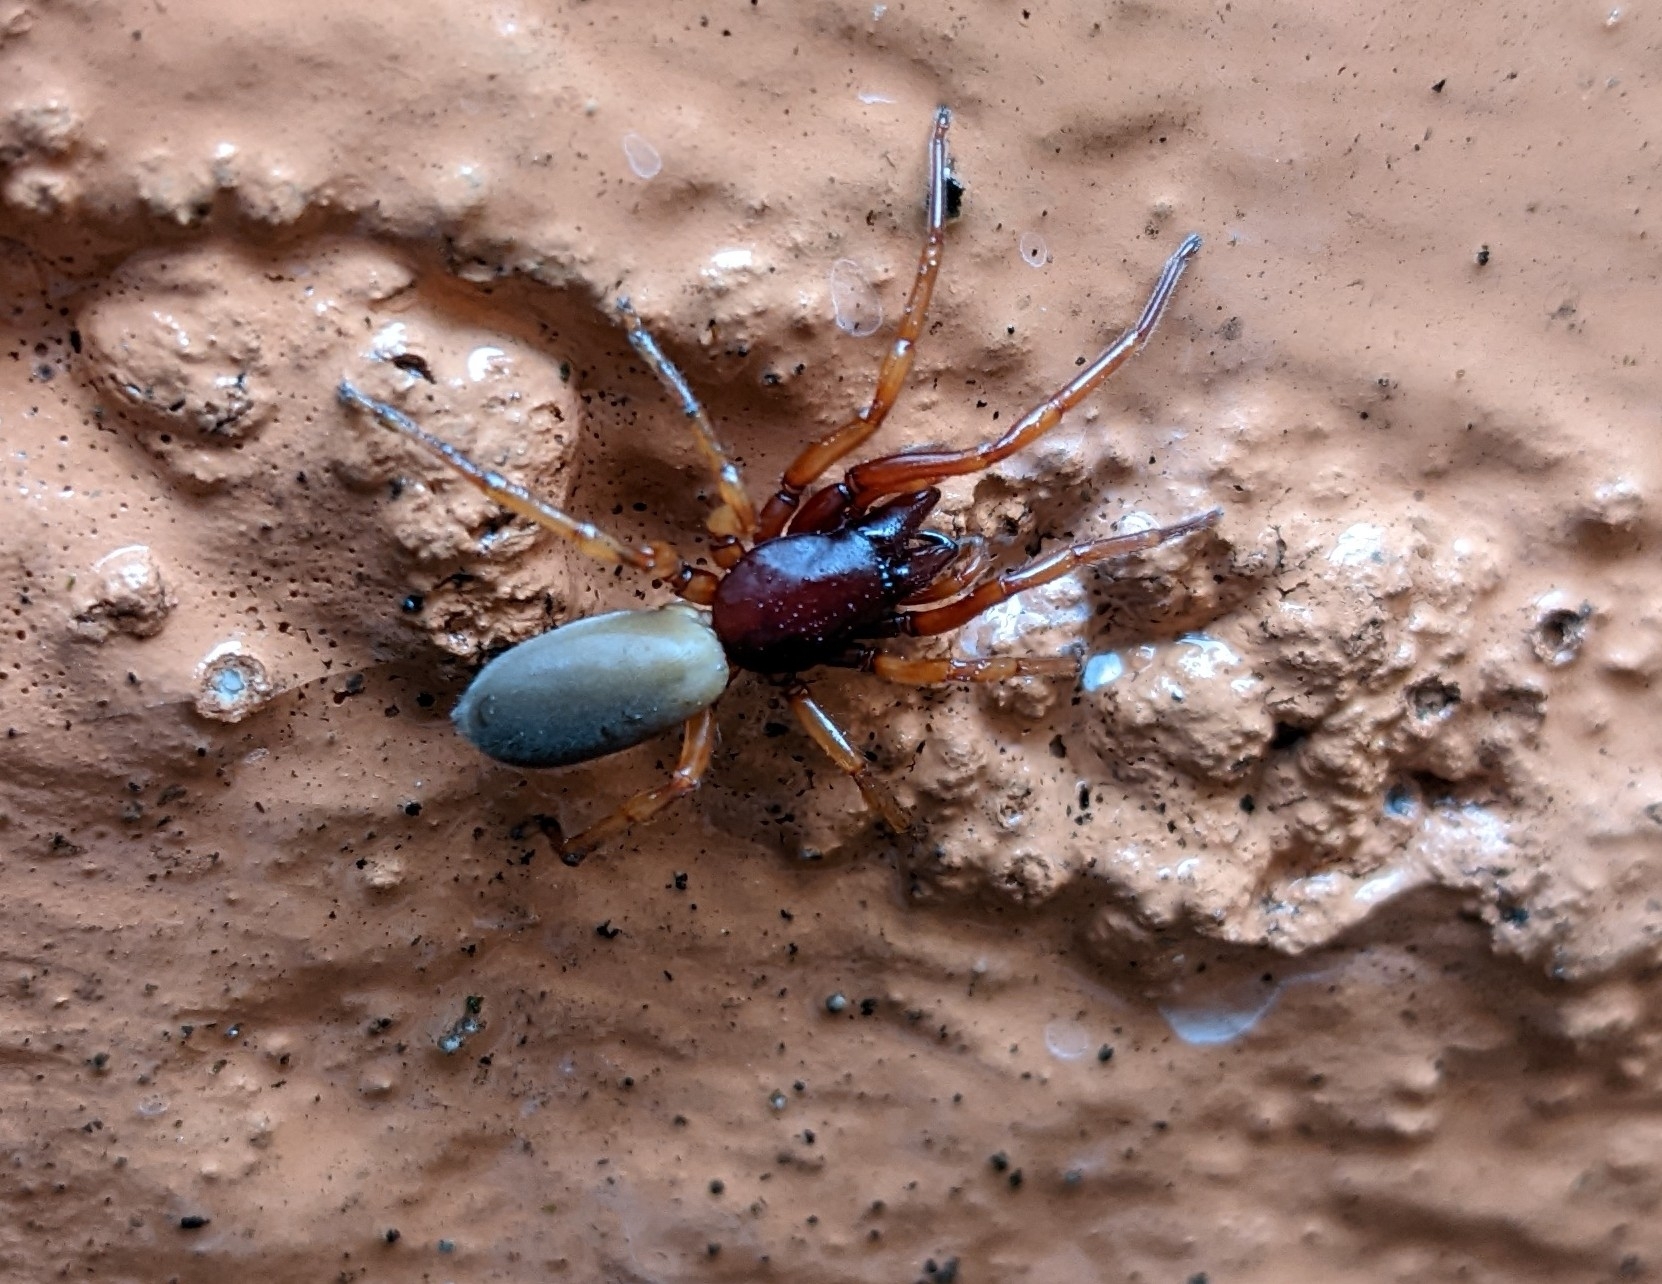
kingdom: Animalia
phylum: Arthropoda
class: Arachnida
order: Araneae
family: Dysderidae
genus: Dysdera
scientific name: Dysdera crocata
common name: Woodlouse spider
